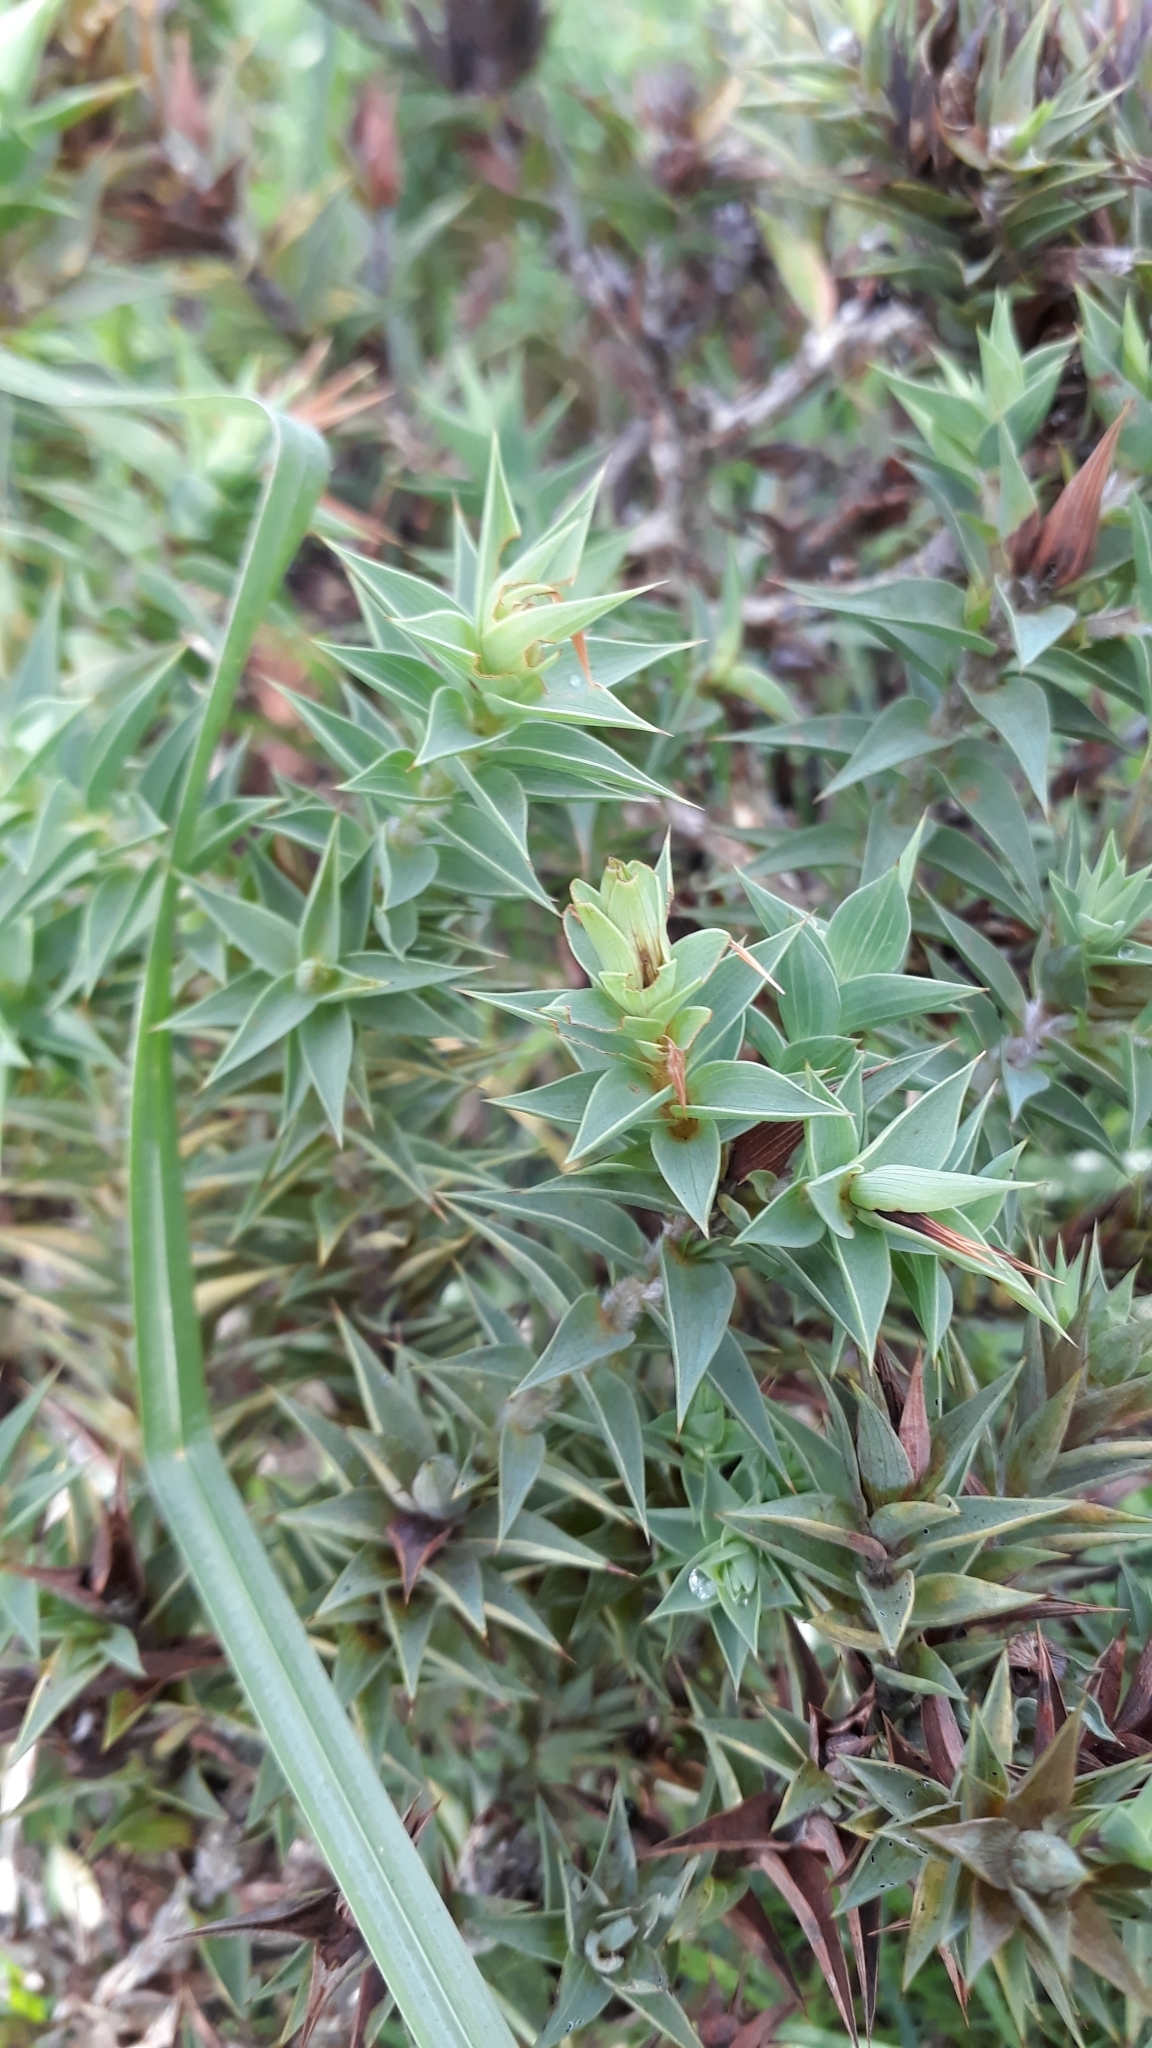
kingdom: Plantae
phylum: Tracheophyta
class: Magnoliopsida
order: Fabales
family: Fabaceae
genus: Aspalathus
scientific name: Aspalathus cordata
